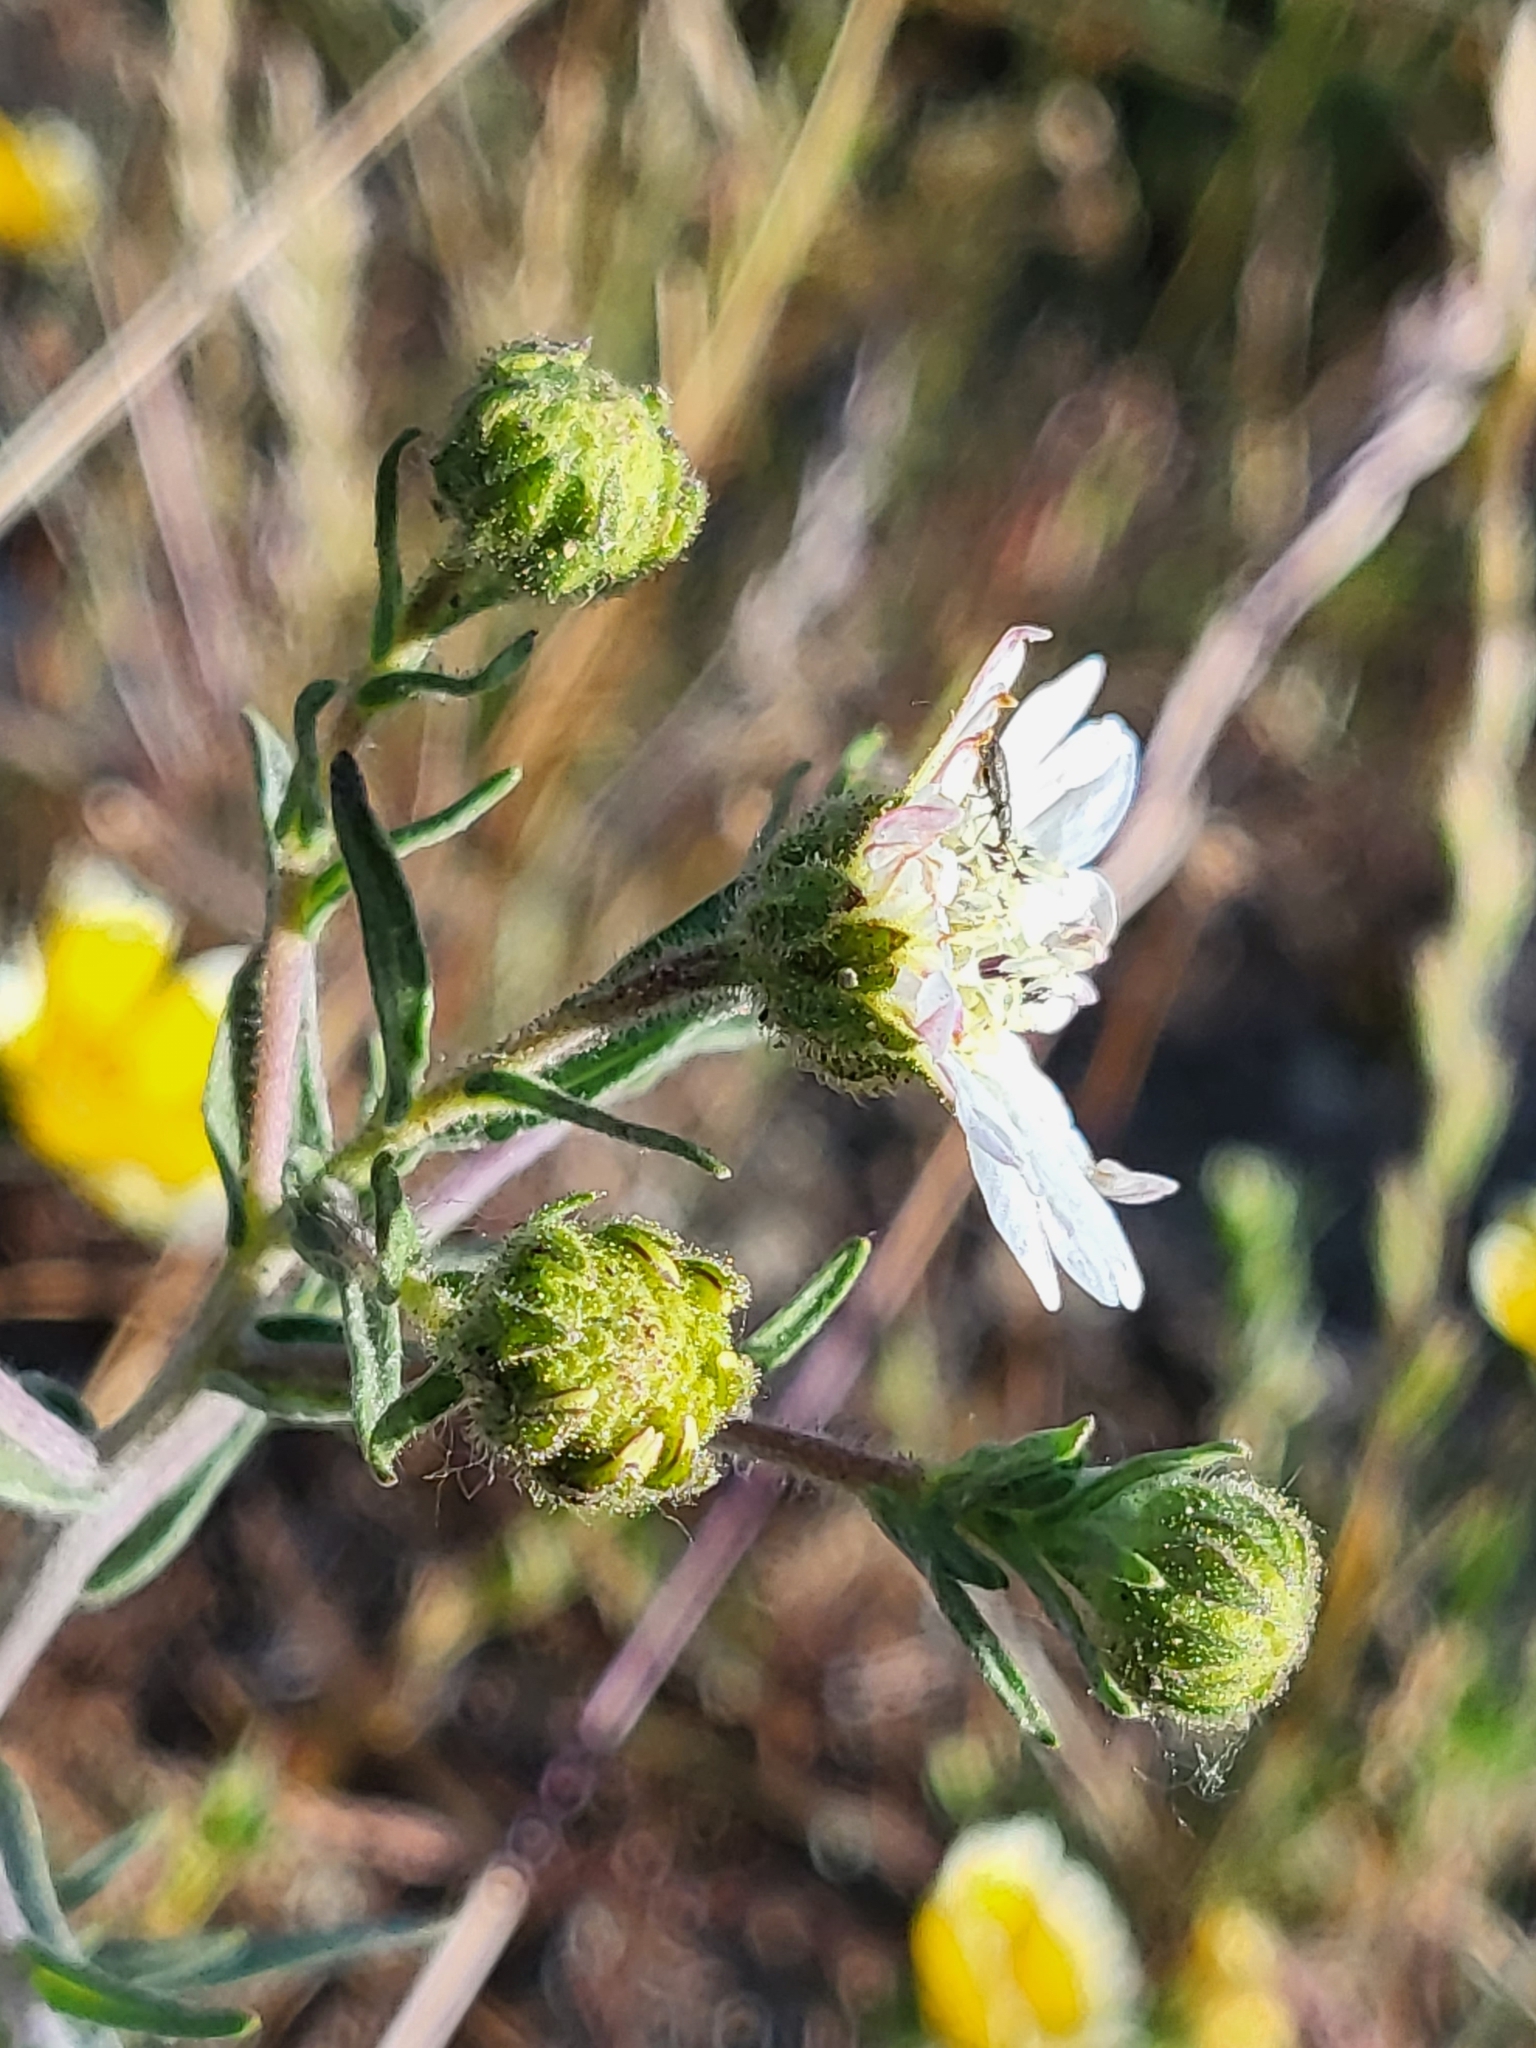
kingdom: Plantae
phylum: Tracheophyta
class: Magnoliopsida
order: Asterales
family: Asteraceae
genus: Hemizonia
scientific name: Hemizonia congesta
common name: Hayfield tarweed
